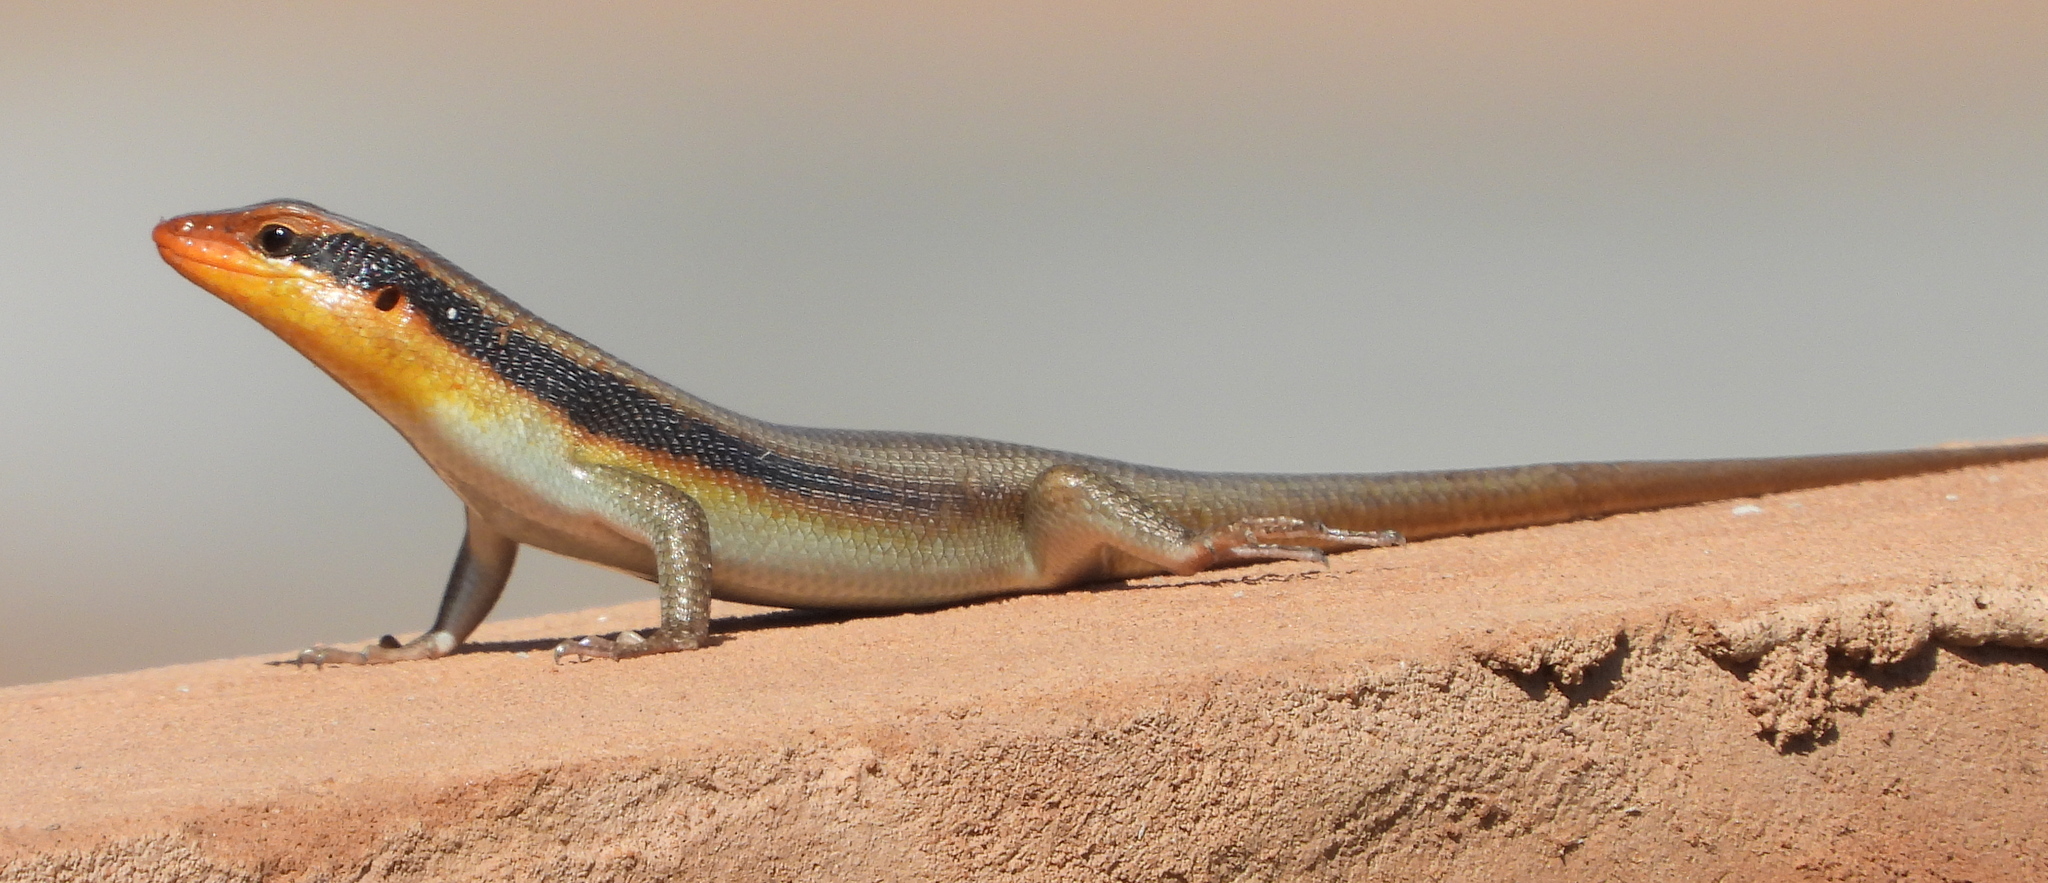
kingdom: Animalia
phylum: Chordata
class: Squamata
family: Scincidae
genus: Trachylepis
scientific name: Trachylepis wahlbergii
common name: Wahlberg’s striped skink
